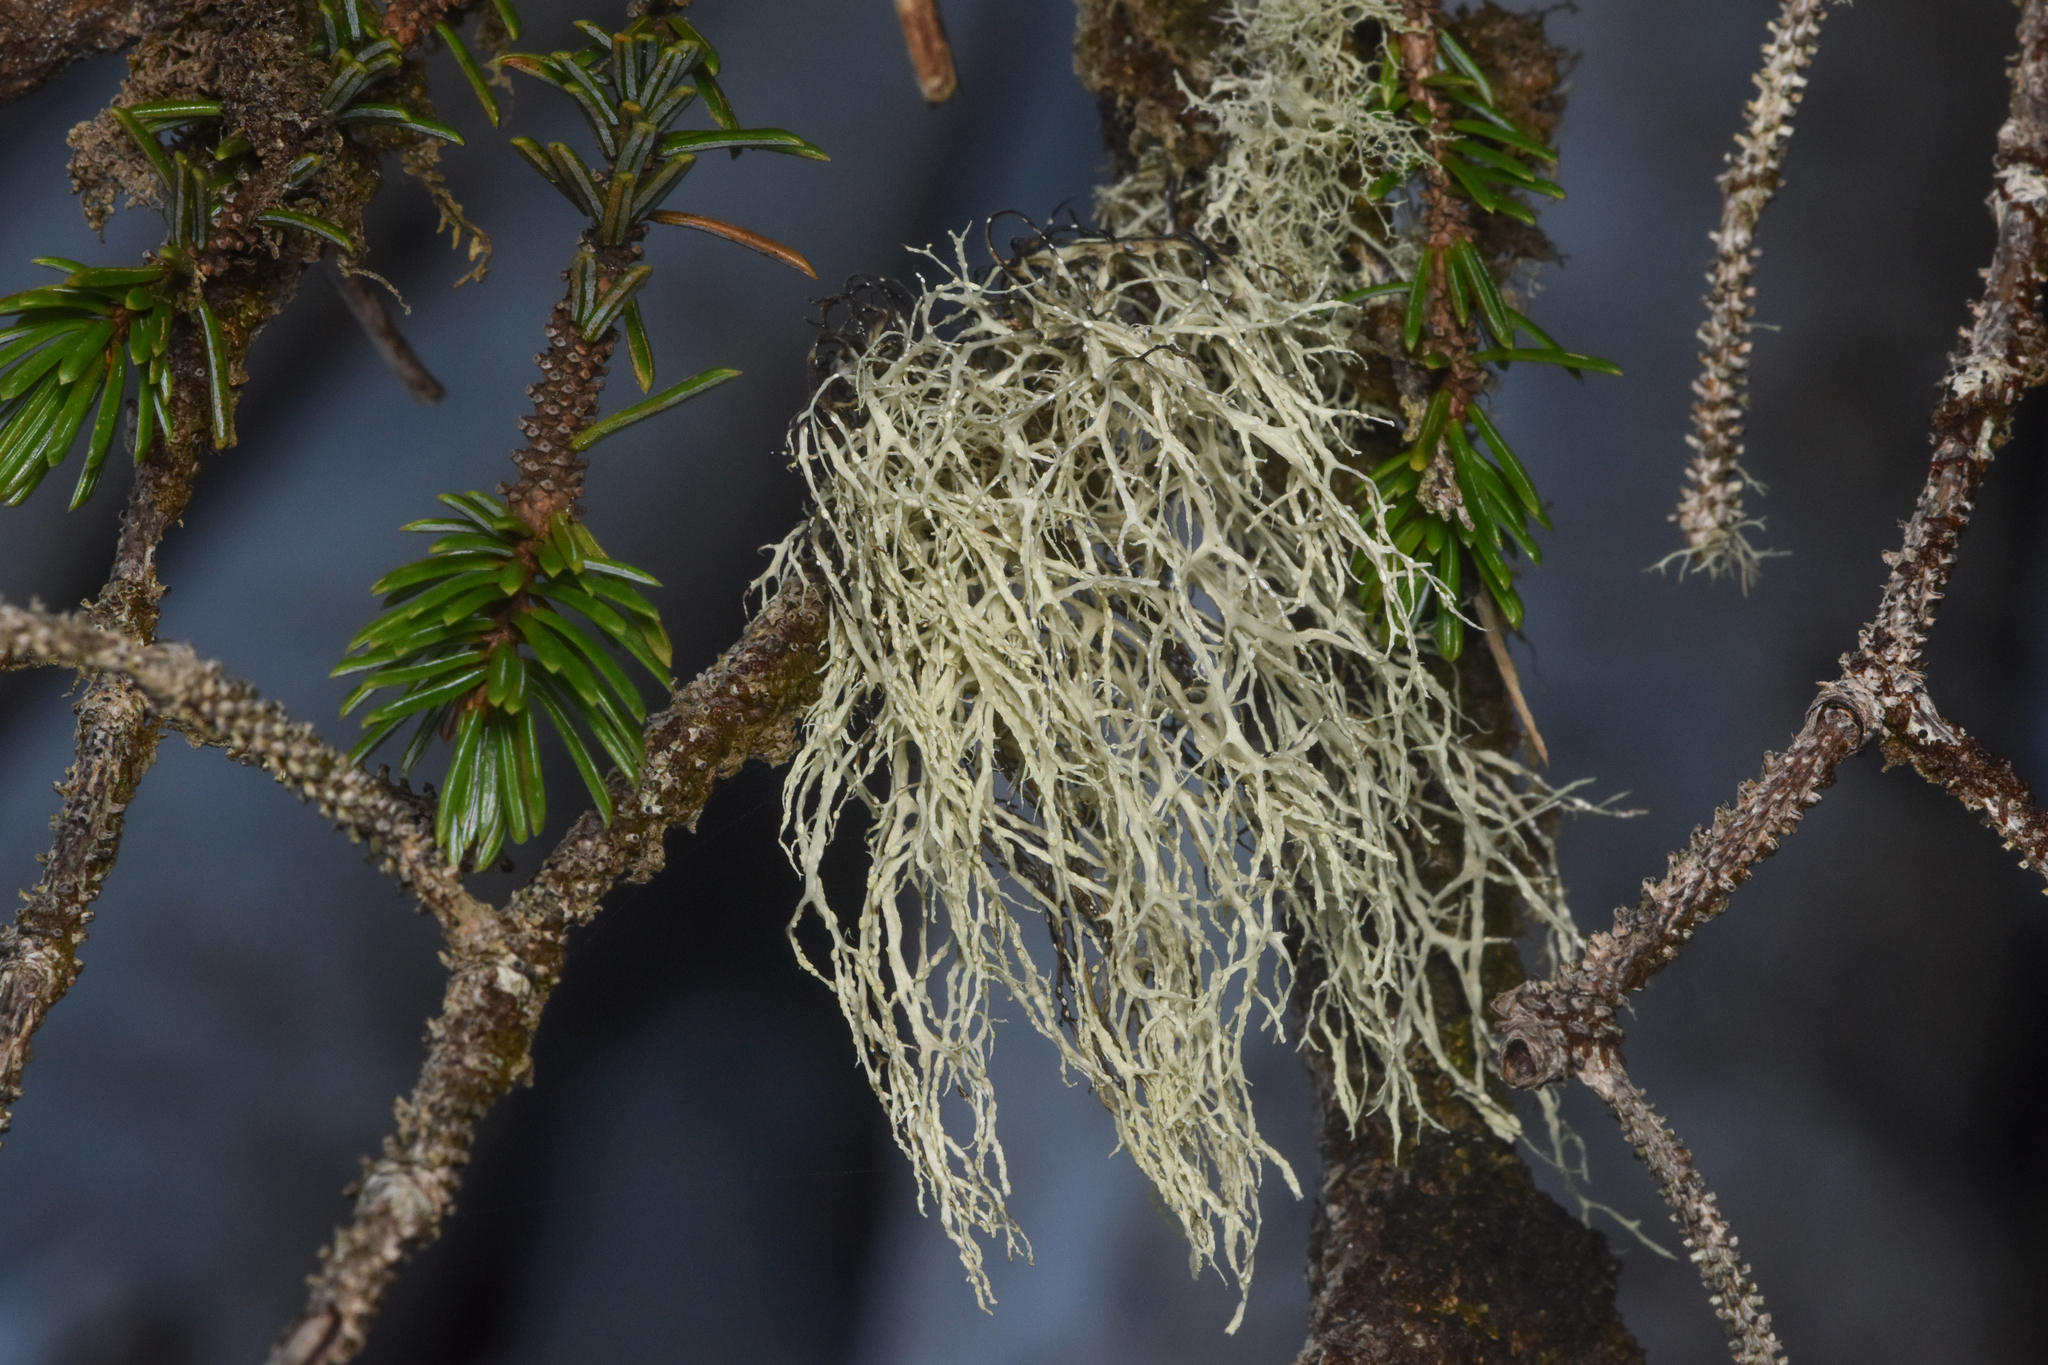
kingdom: Fungi
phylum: Ascomycota
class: Lecanoromycetes
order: Lecanorales
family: Ramalinaceae
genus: Ramalina
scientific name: Ramalina farinacea
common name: Farinose cartilage lichen
